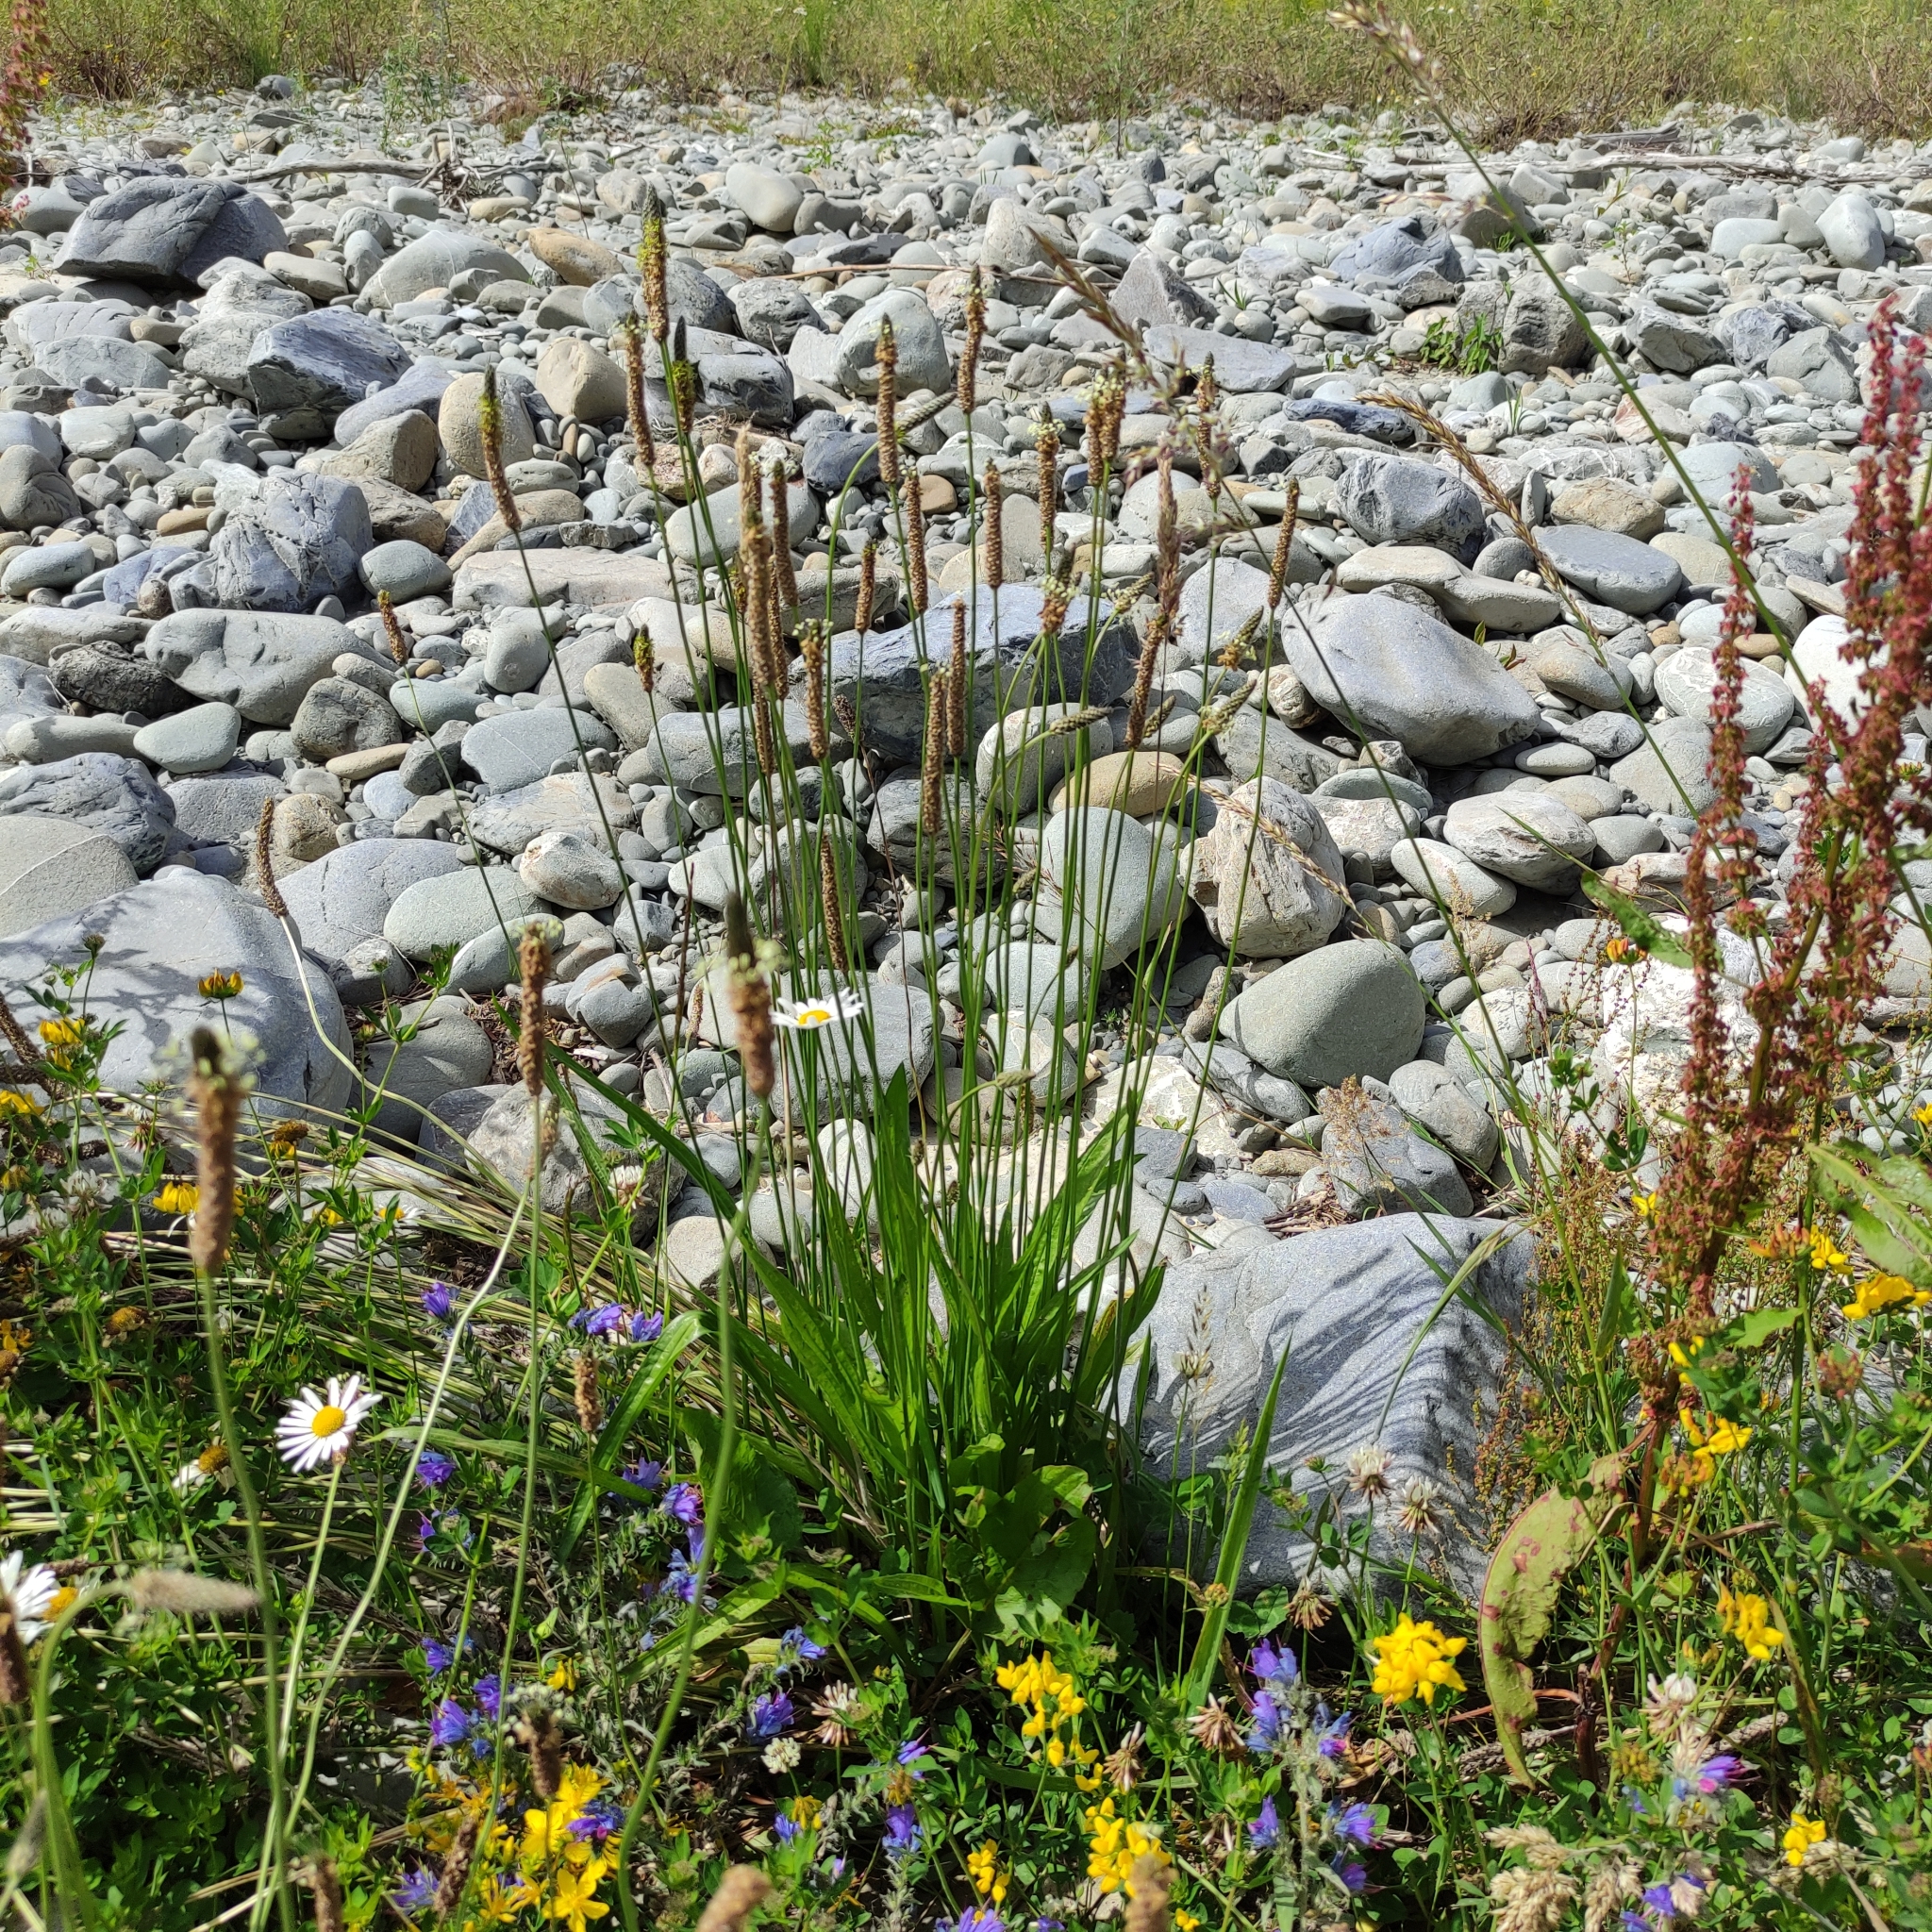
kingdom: Plantae
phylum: Tracheophyta
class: Magnoliopsida
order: Lamiales
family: Plantaginaceae
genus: Plantago
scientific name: Plantago lanceolata
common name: Ribwort plantain
